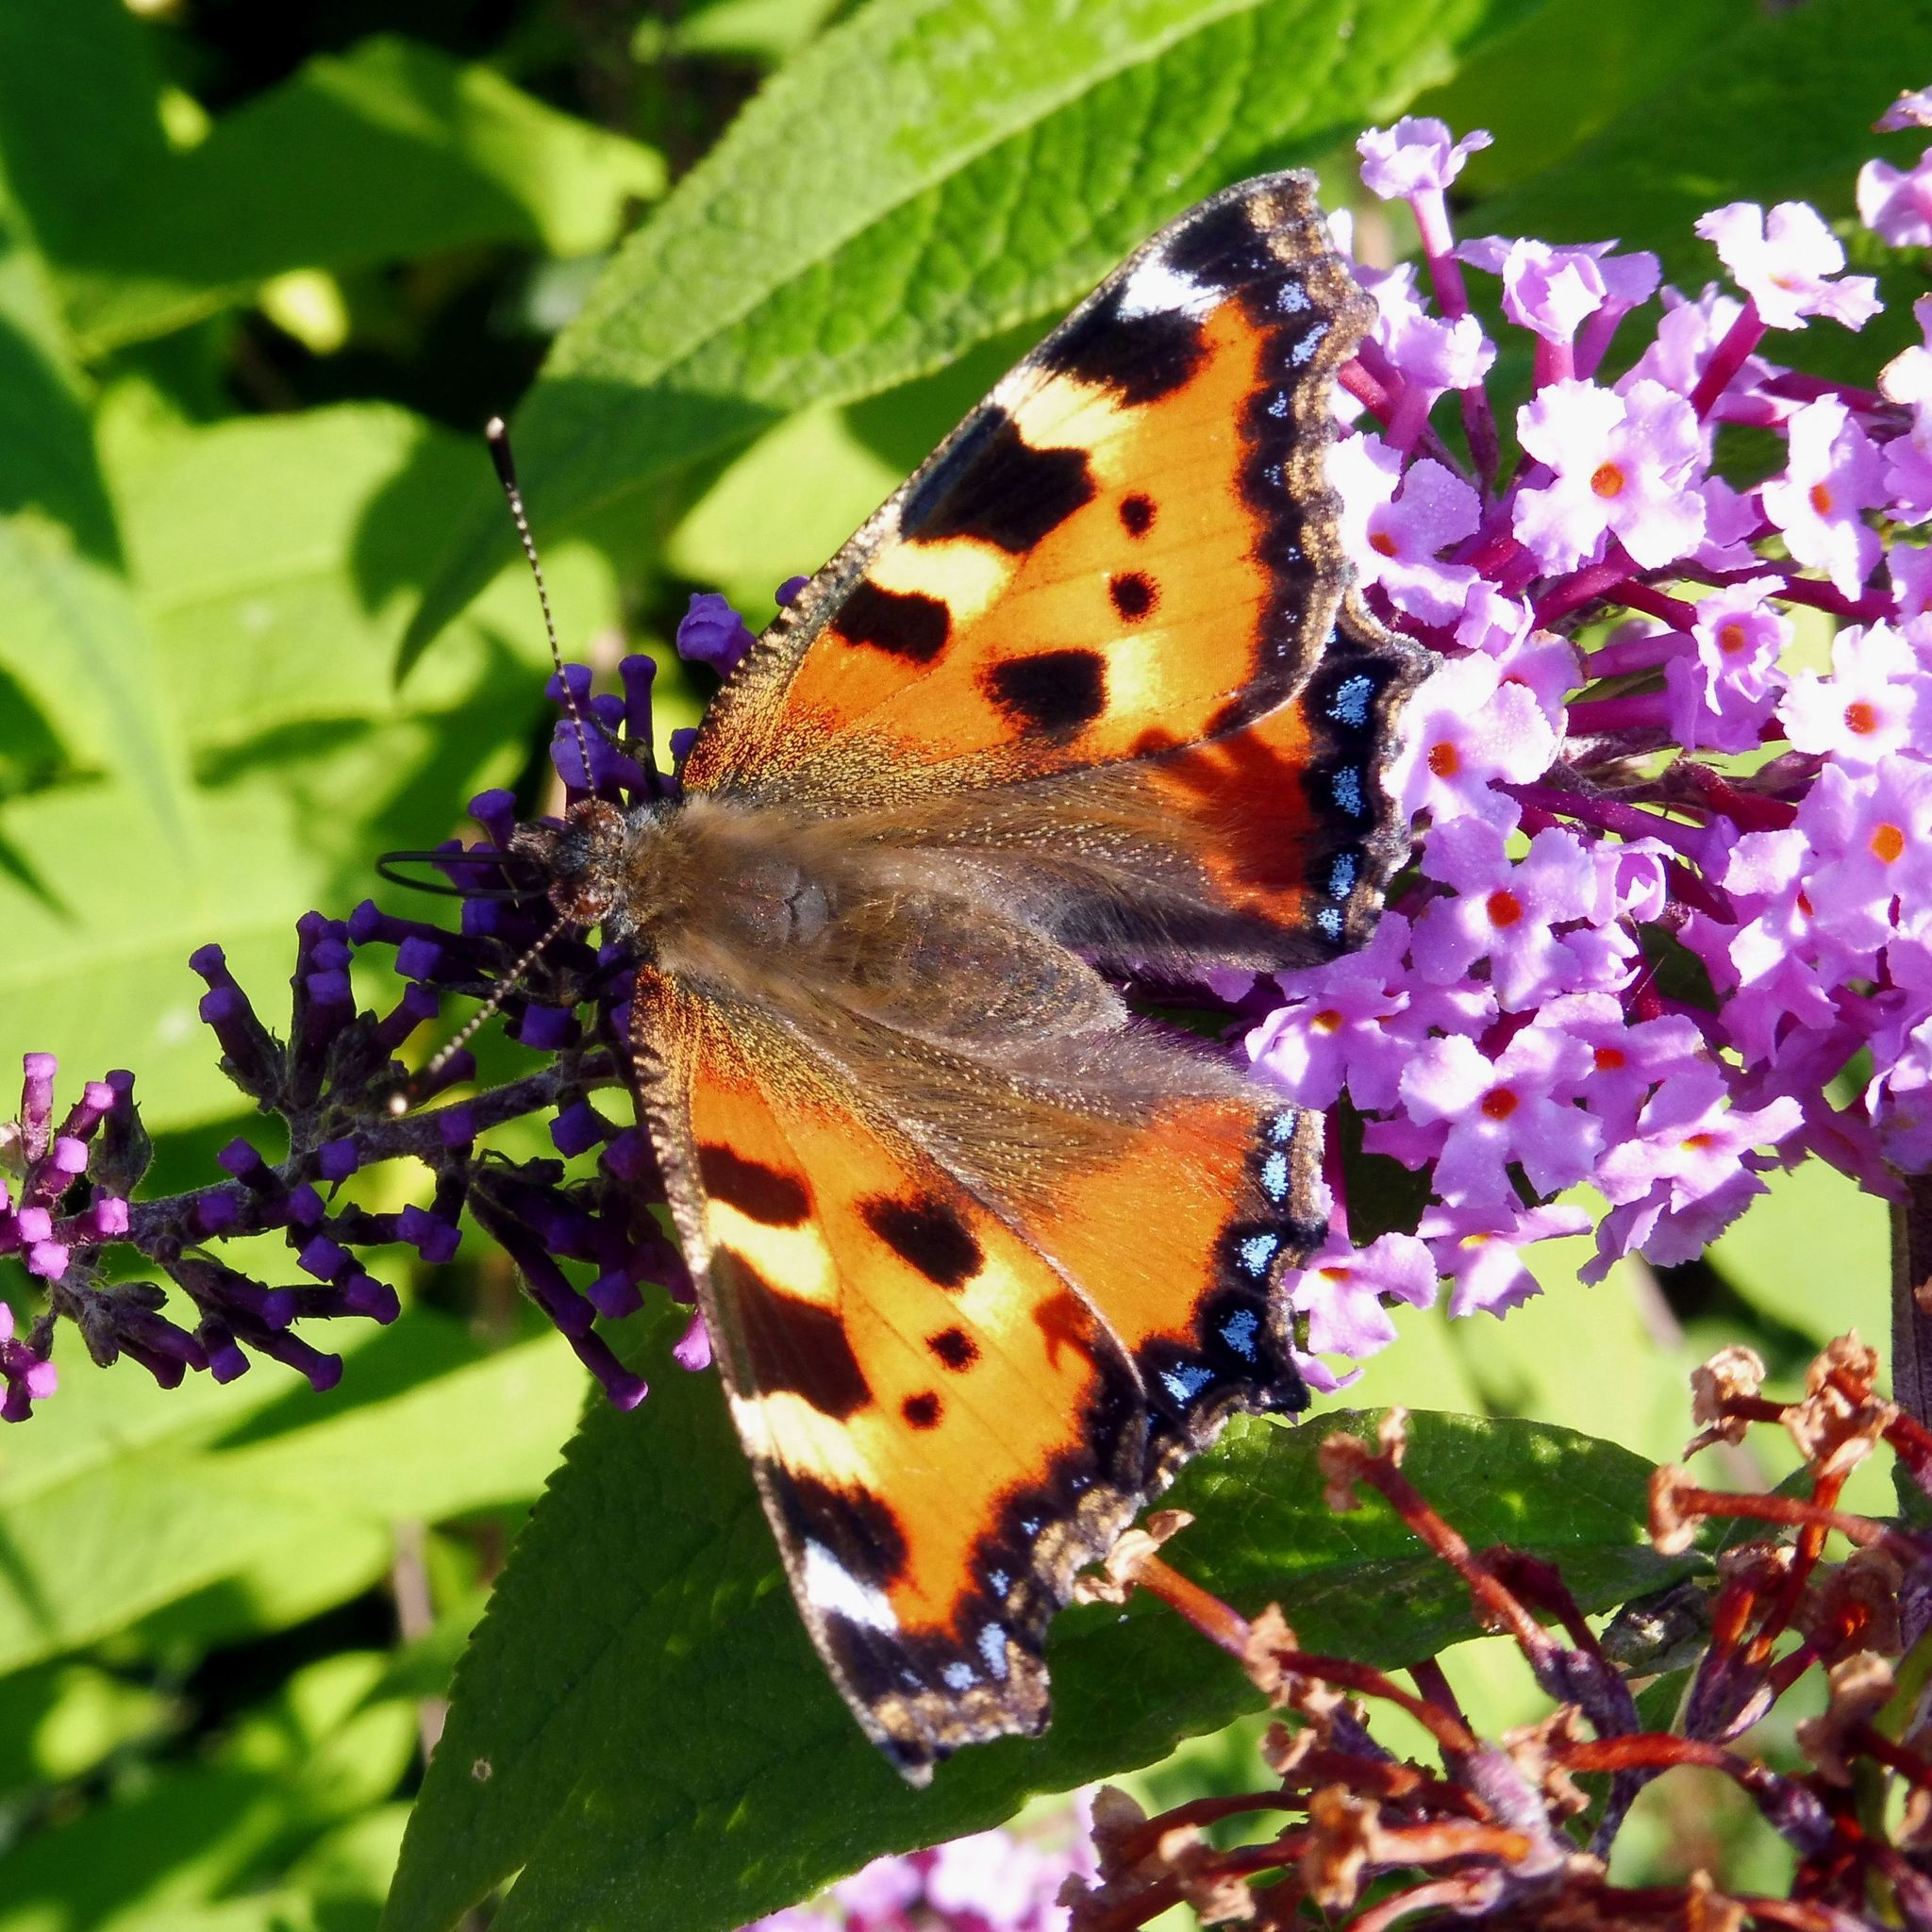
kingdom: Animalia
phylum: Arthropoda
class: Insecta
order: Lepidoptera
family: Nymphalidae
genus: Aglais
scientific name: Aglais urticae
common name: Small tortoiseshell
